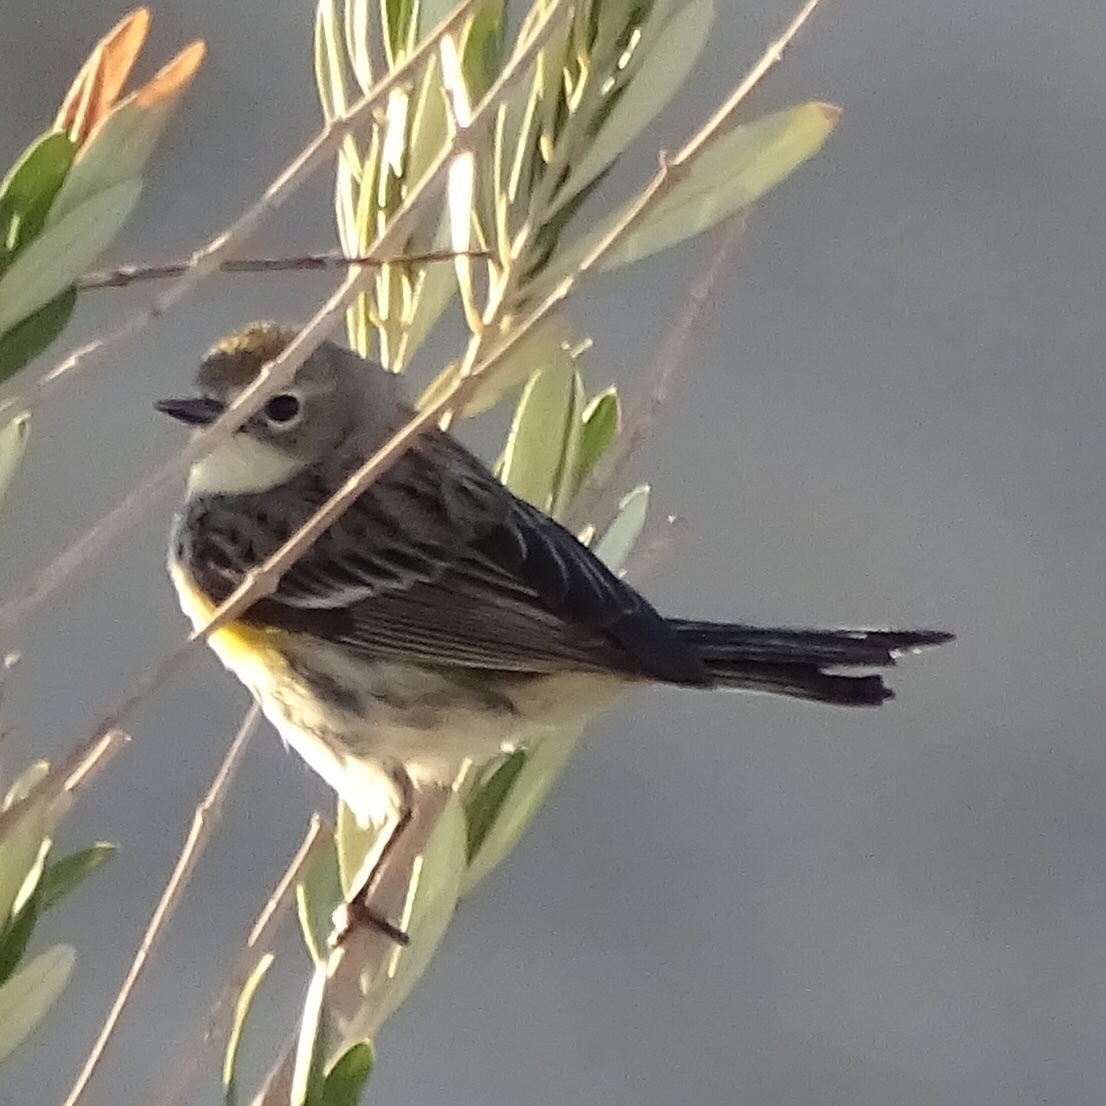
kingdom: Animalia
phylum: Chordata
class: Aves
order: Passeriformes
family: Parulidae
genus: Setophaga
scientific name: Setophaga coronata
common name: Myrtle warbler
